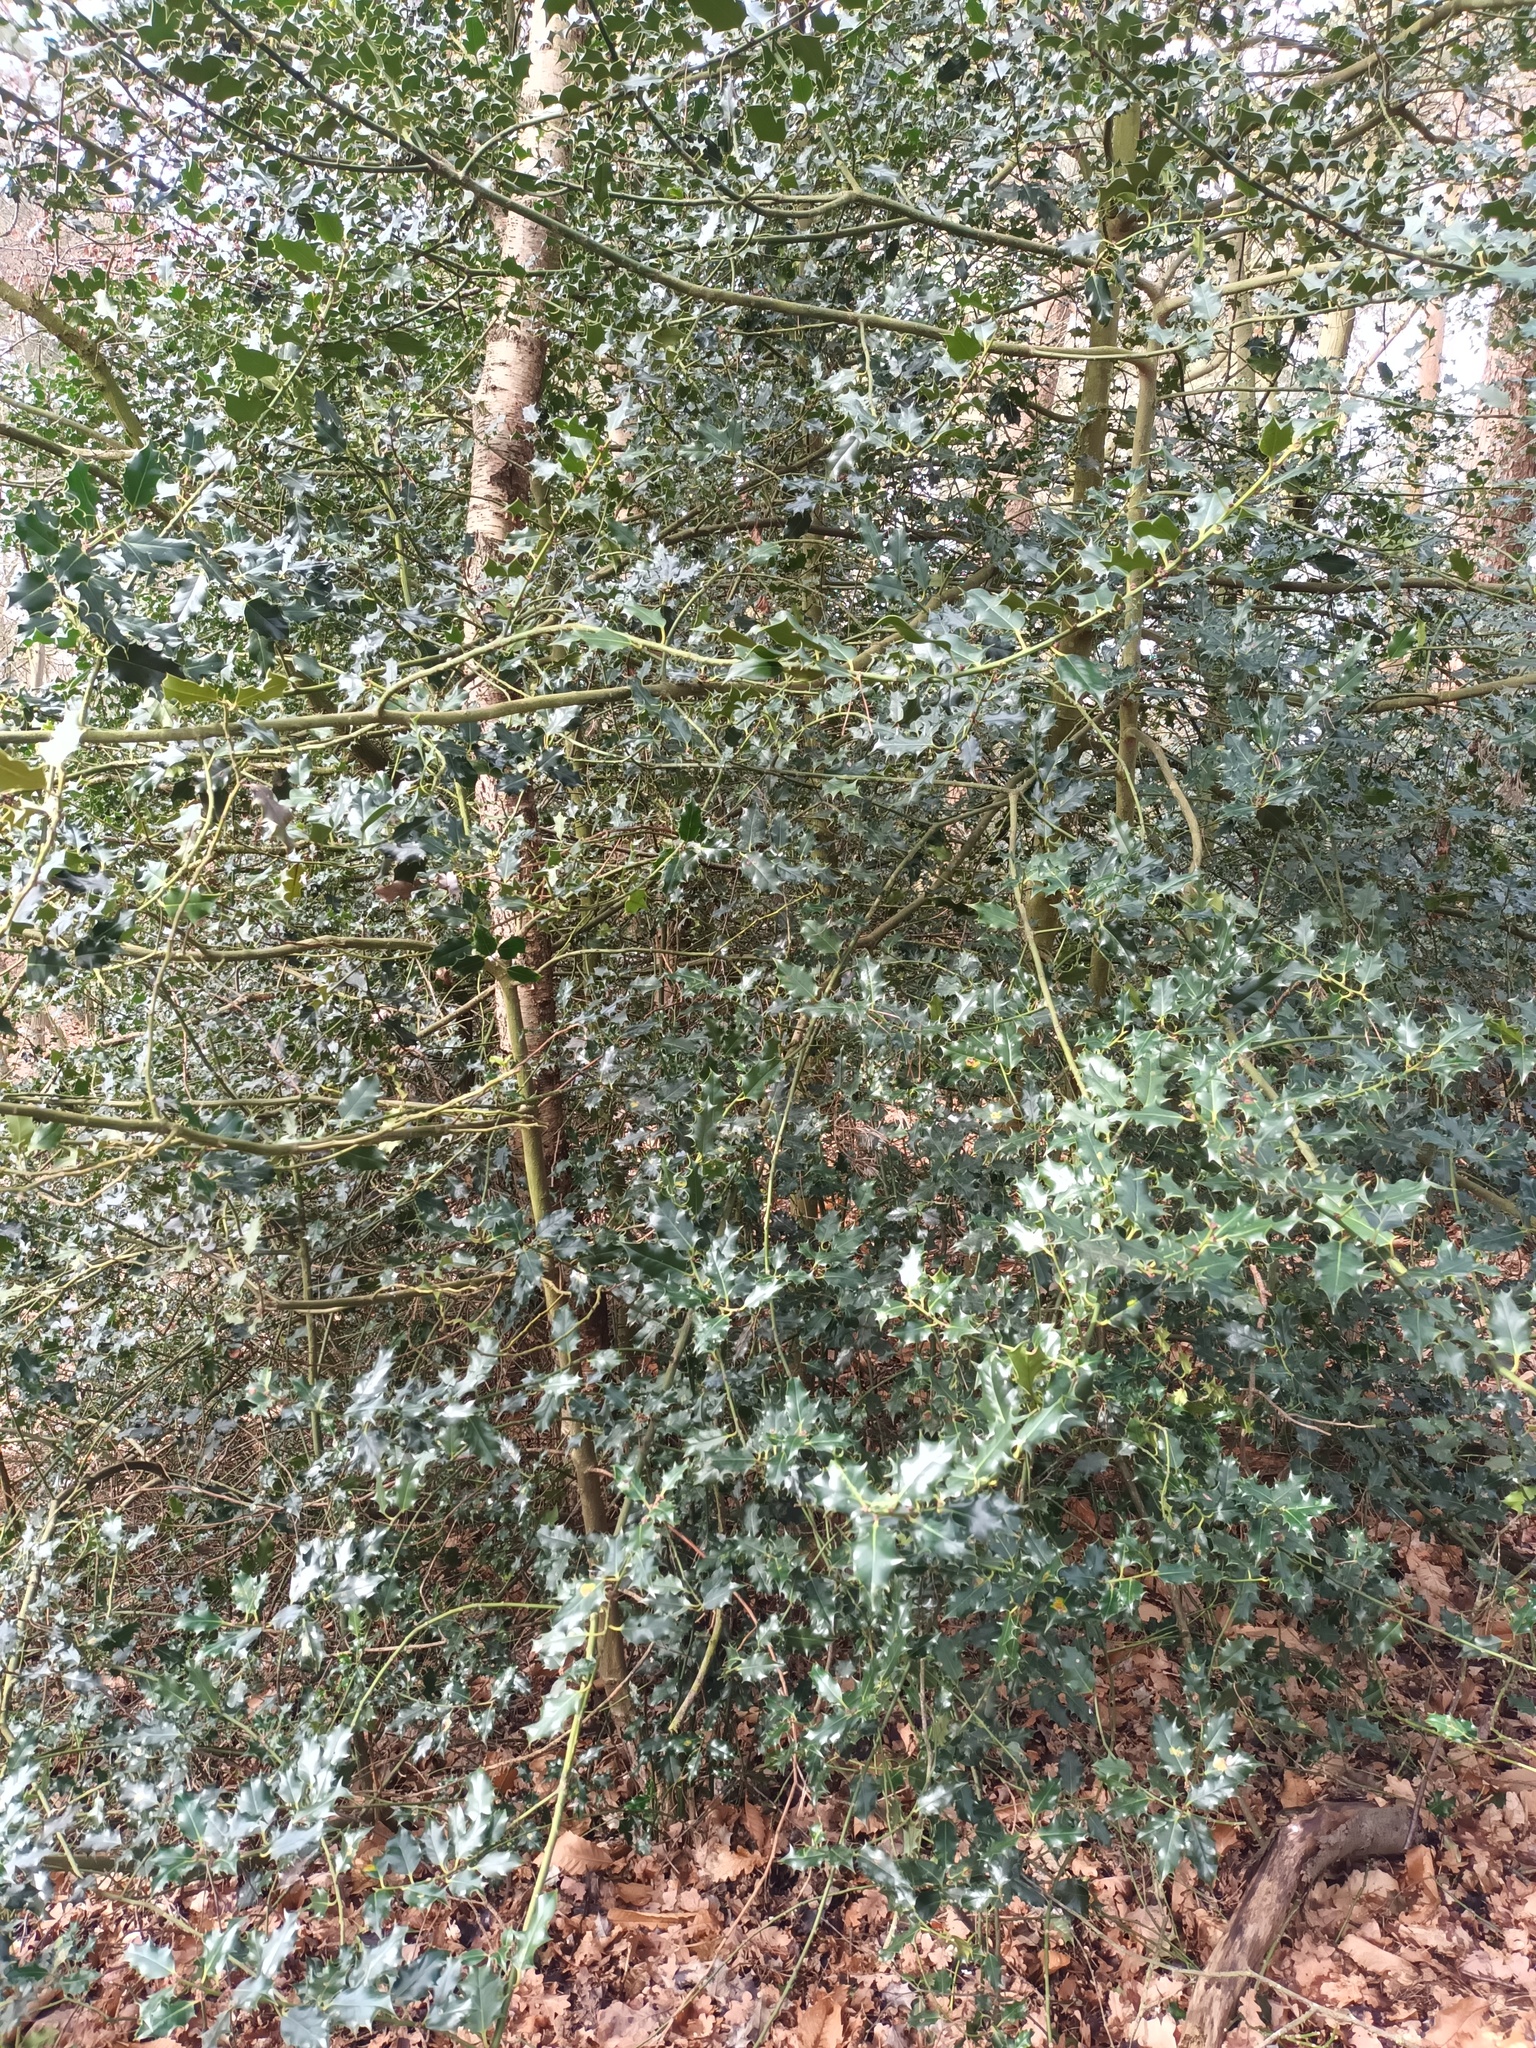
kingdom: Plantae
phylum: Tracheophyta
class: Magnoliopsida
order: Aquifoliales
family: Aquifoliaceae
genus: Ilex
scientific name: Ilex aquifolium
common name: English holly
